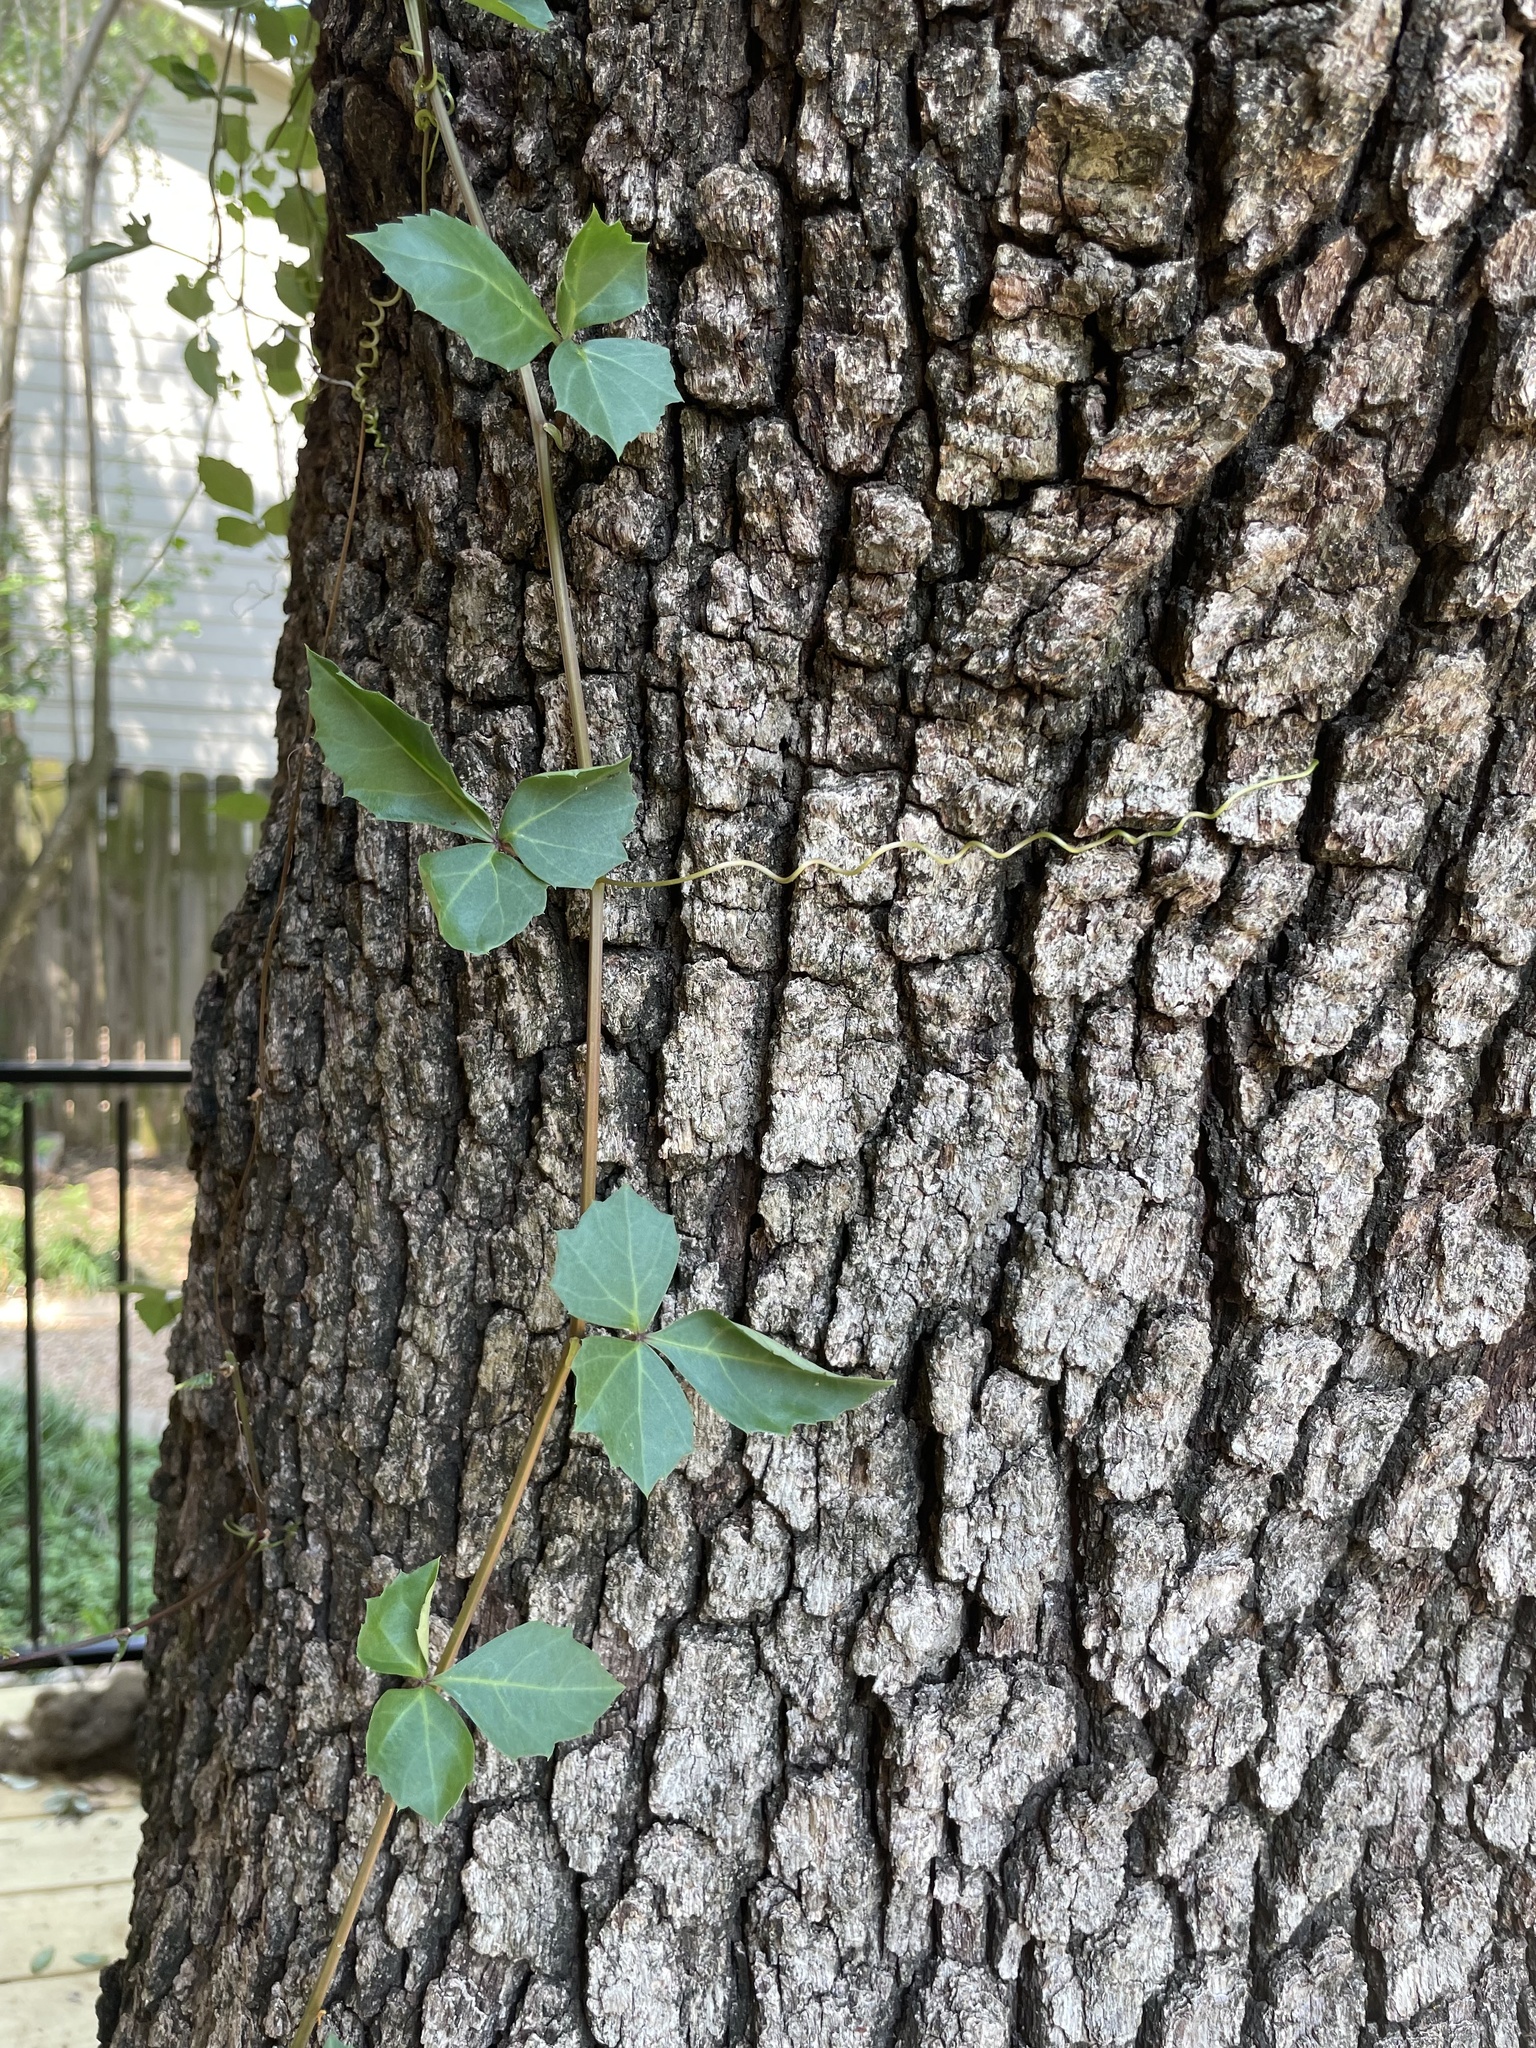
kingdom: Plantae
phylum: Tracheophyta
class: Magnoliopsida
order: Vitales
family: Vitaceae
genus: Cissus
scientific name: Cissus trifoliata
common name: Vine-sorrel
